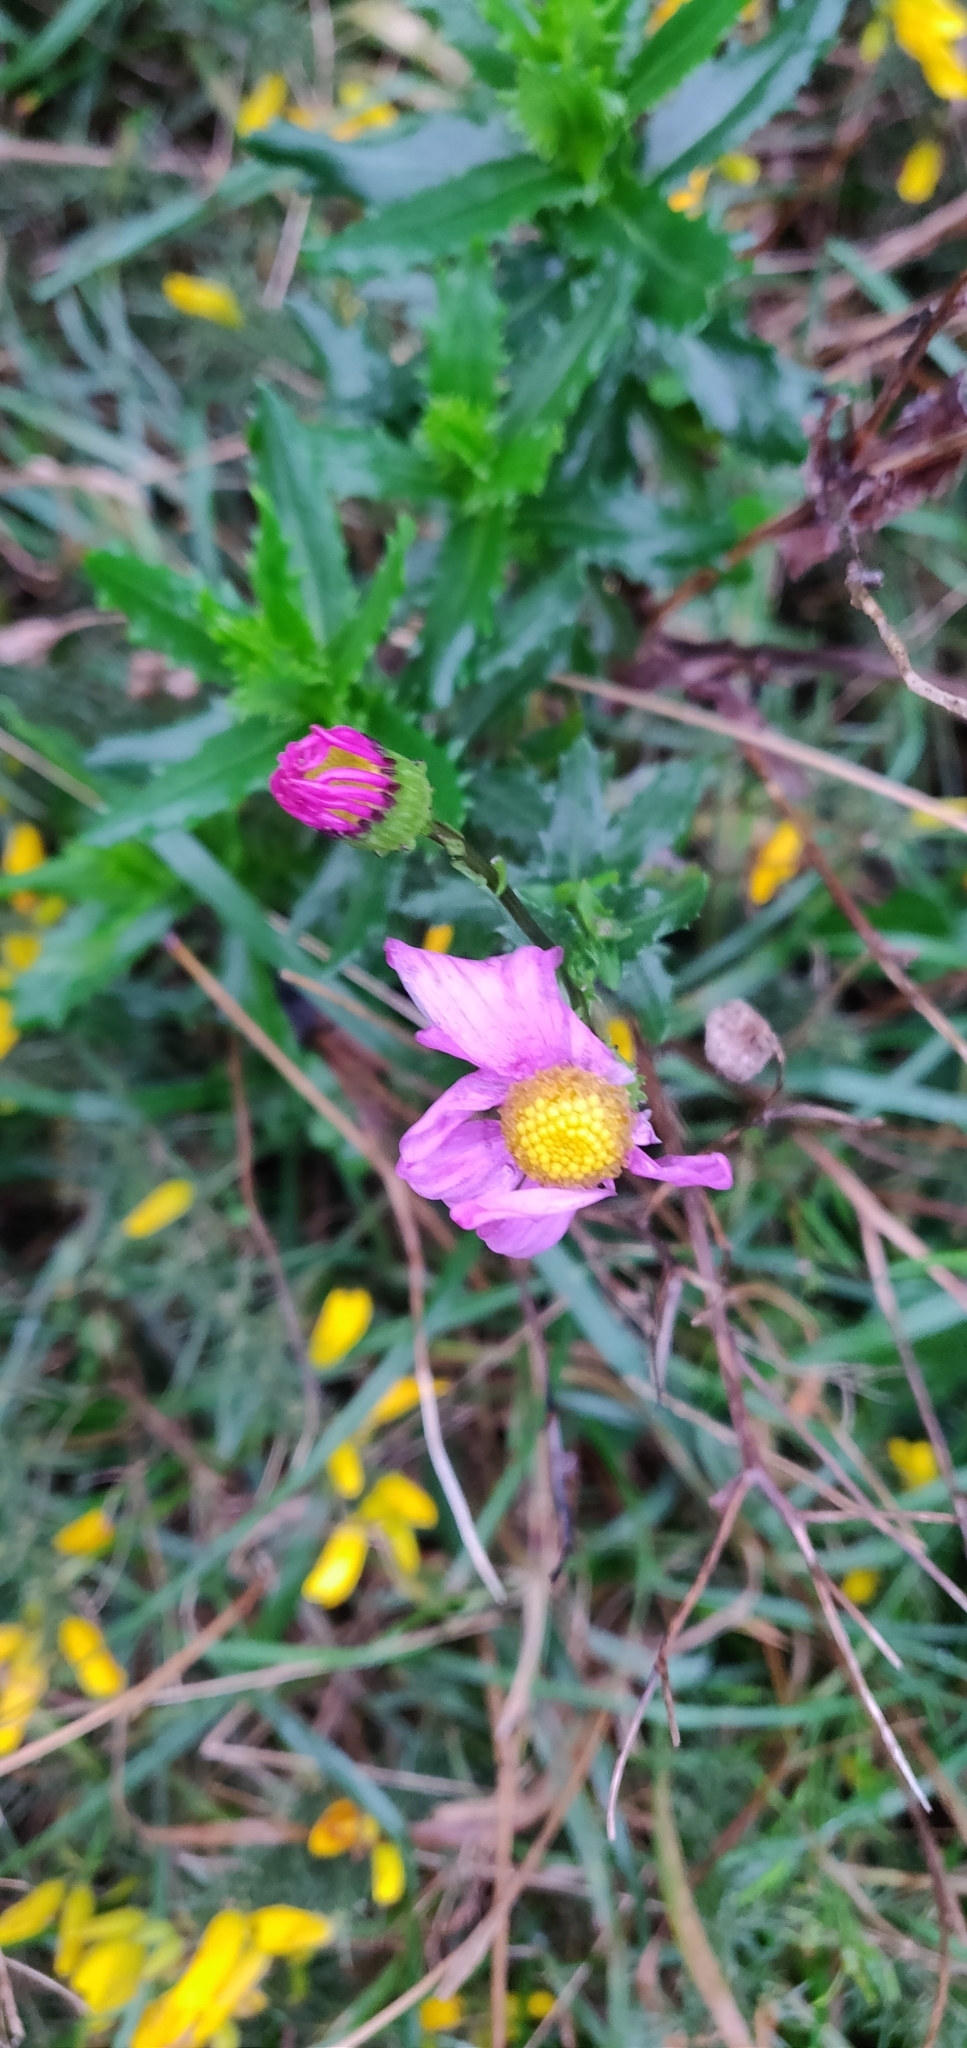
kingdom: Plantae
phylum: Tracheophyta
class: Magnoliopsida
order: Asterales
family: Asteraceae
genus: Senecio
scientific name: Senecio glastifolius
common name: Woad-leaved ragwort
